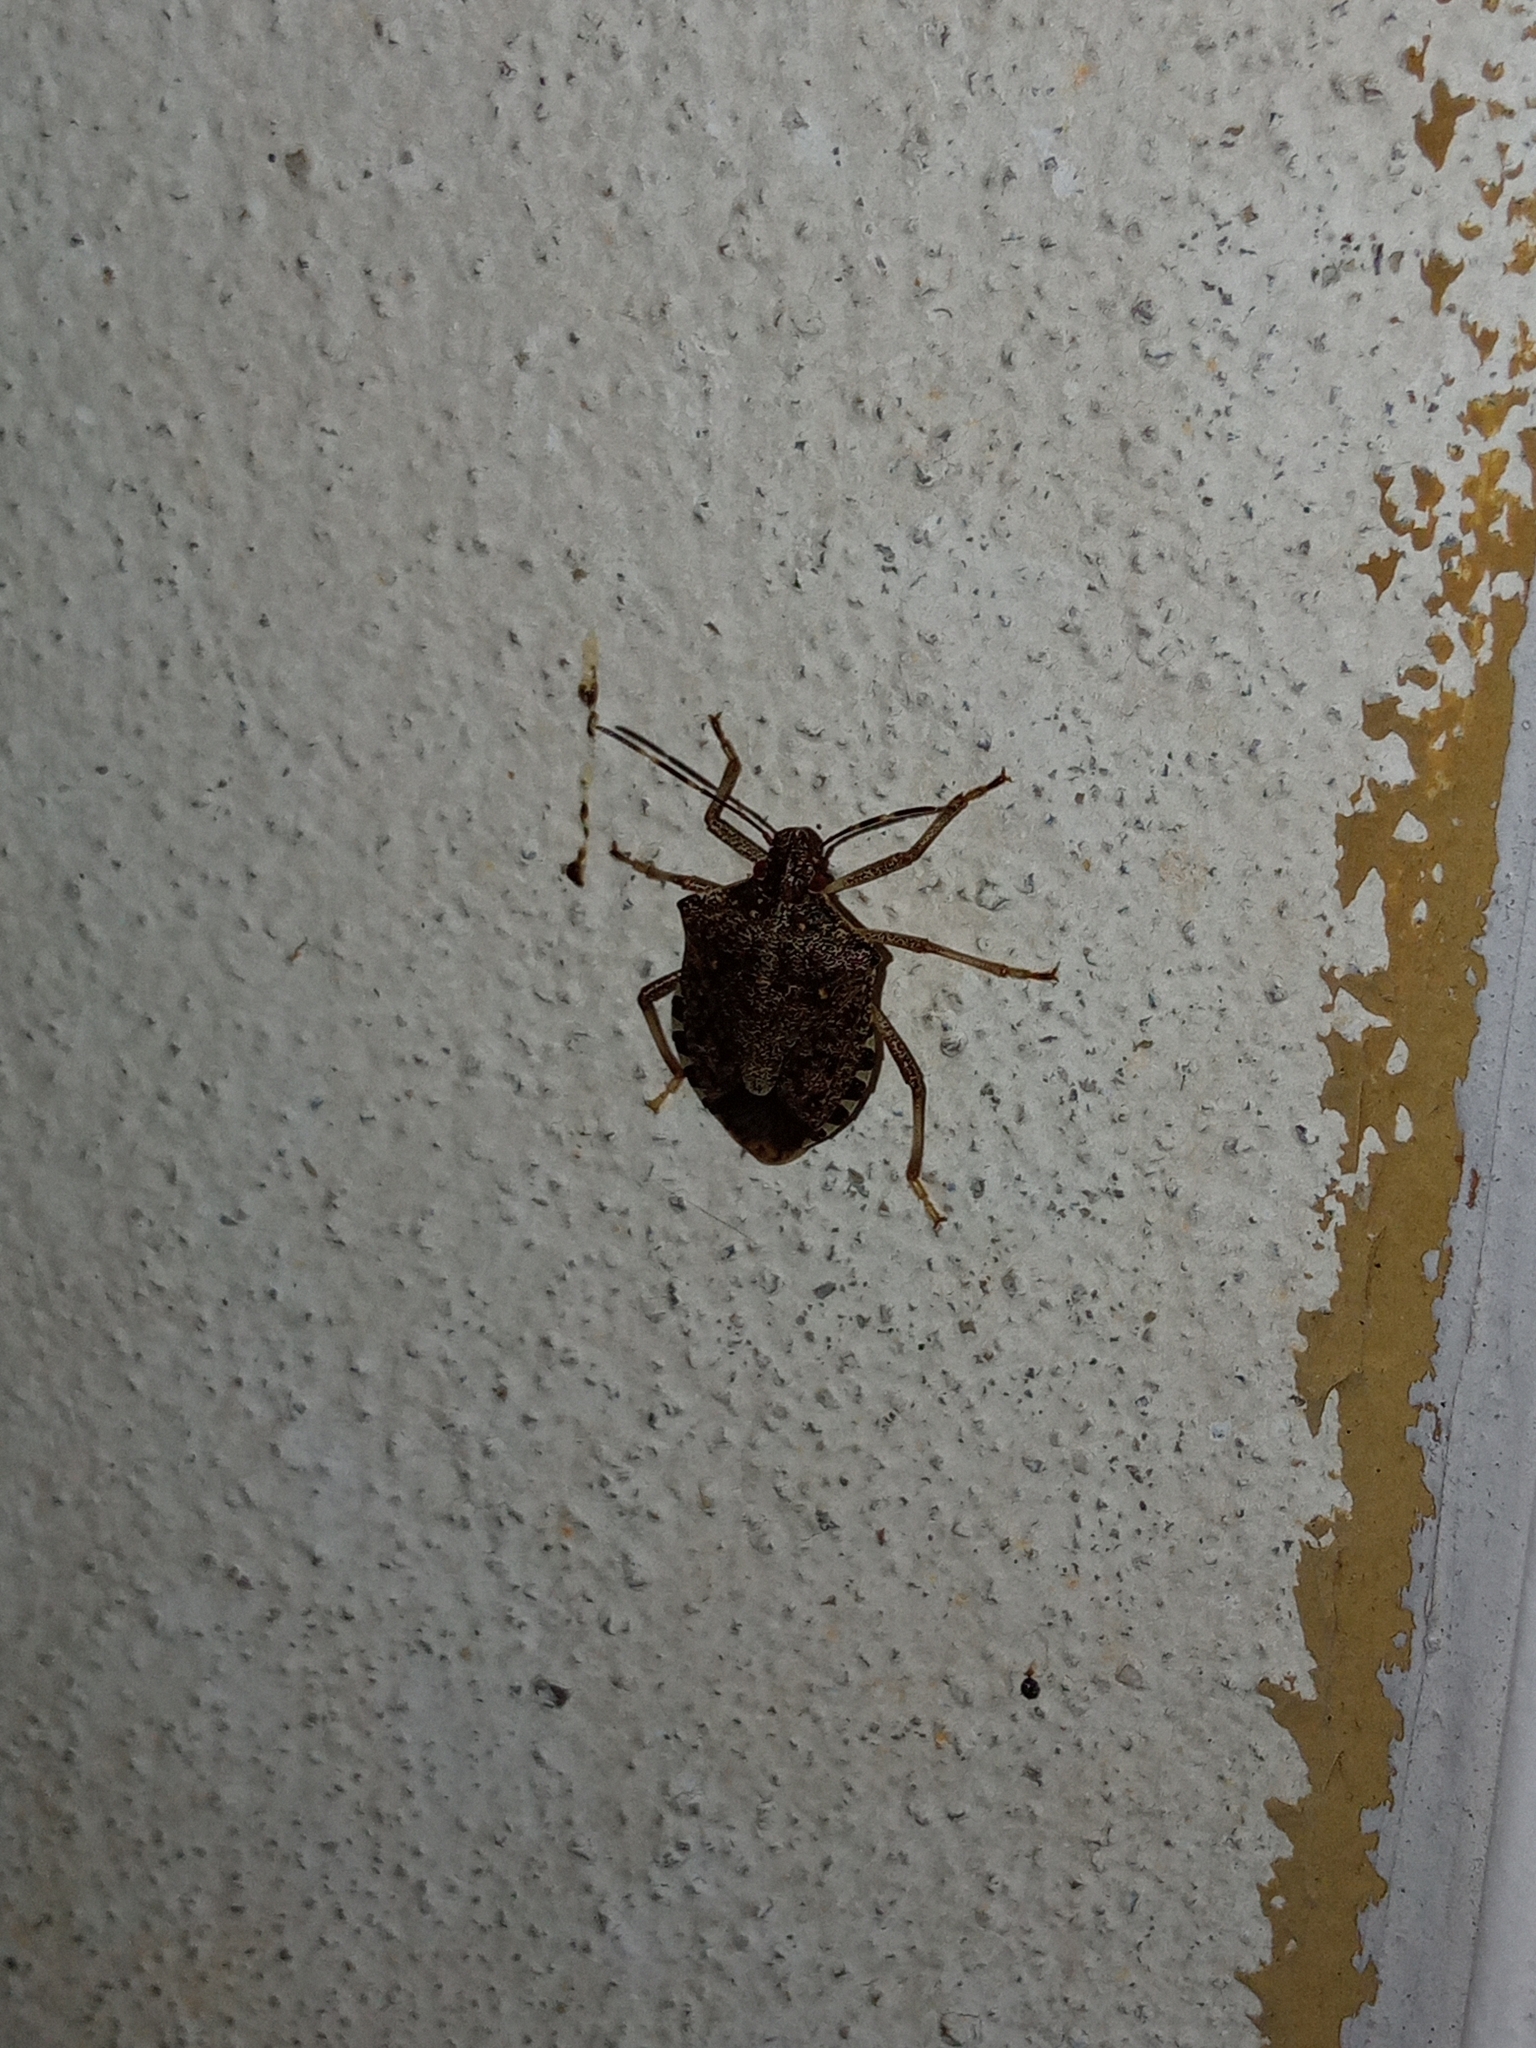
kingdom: Animalia
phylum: Arthropoda
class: Insecta
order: Hemiptera
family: Pentatomidae
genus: Halyomorpha
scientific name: Halyomorpha halys
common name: Brown marmorated stink bug
